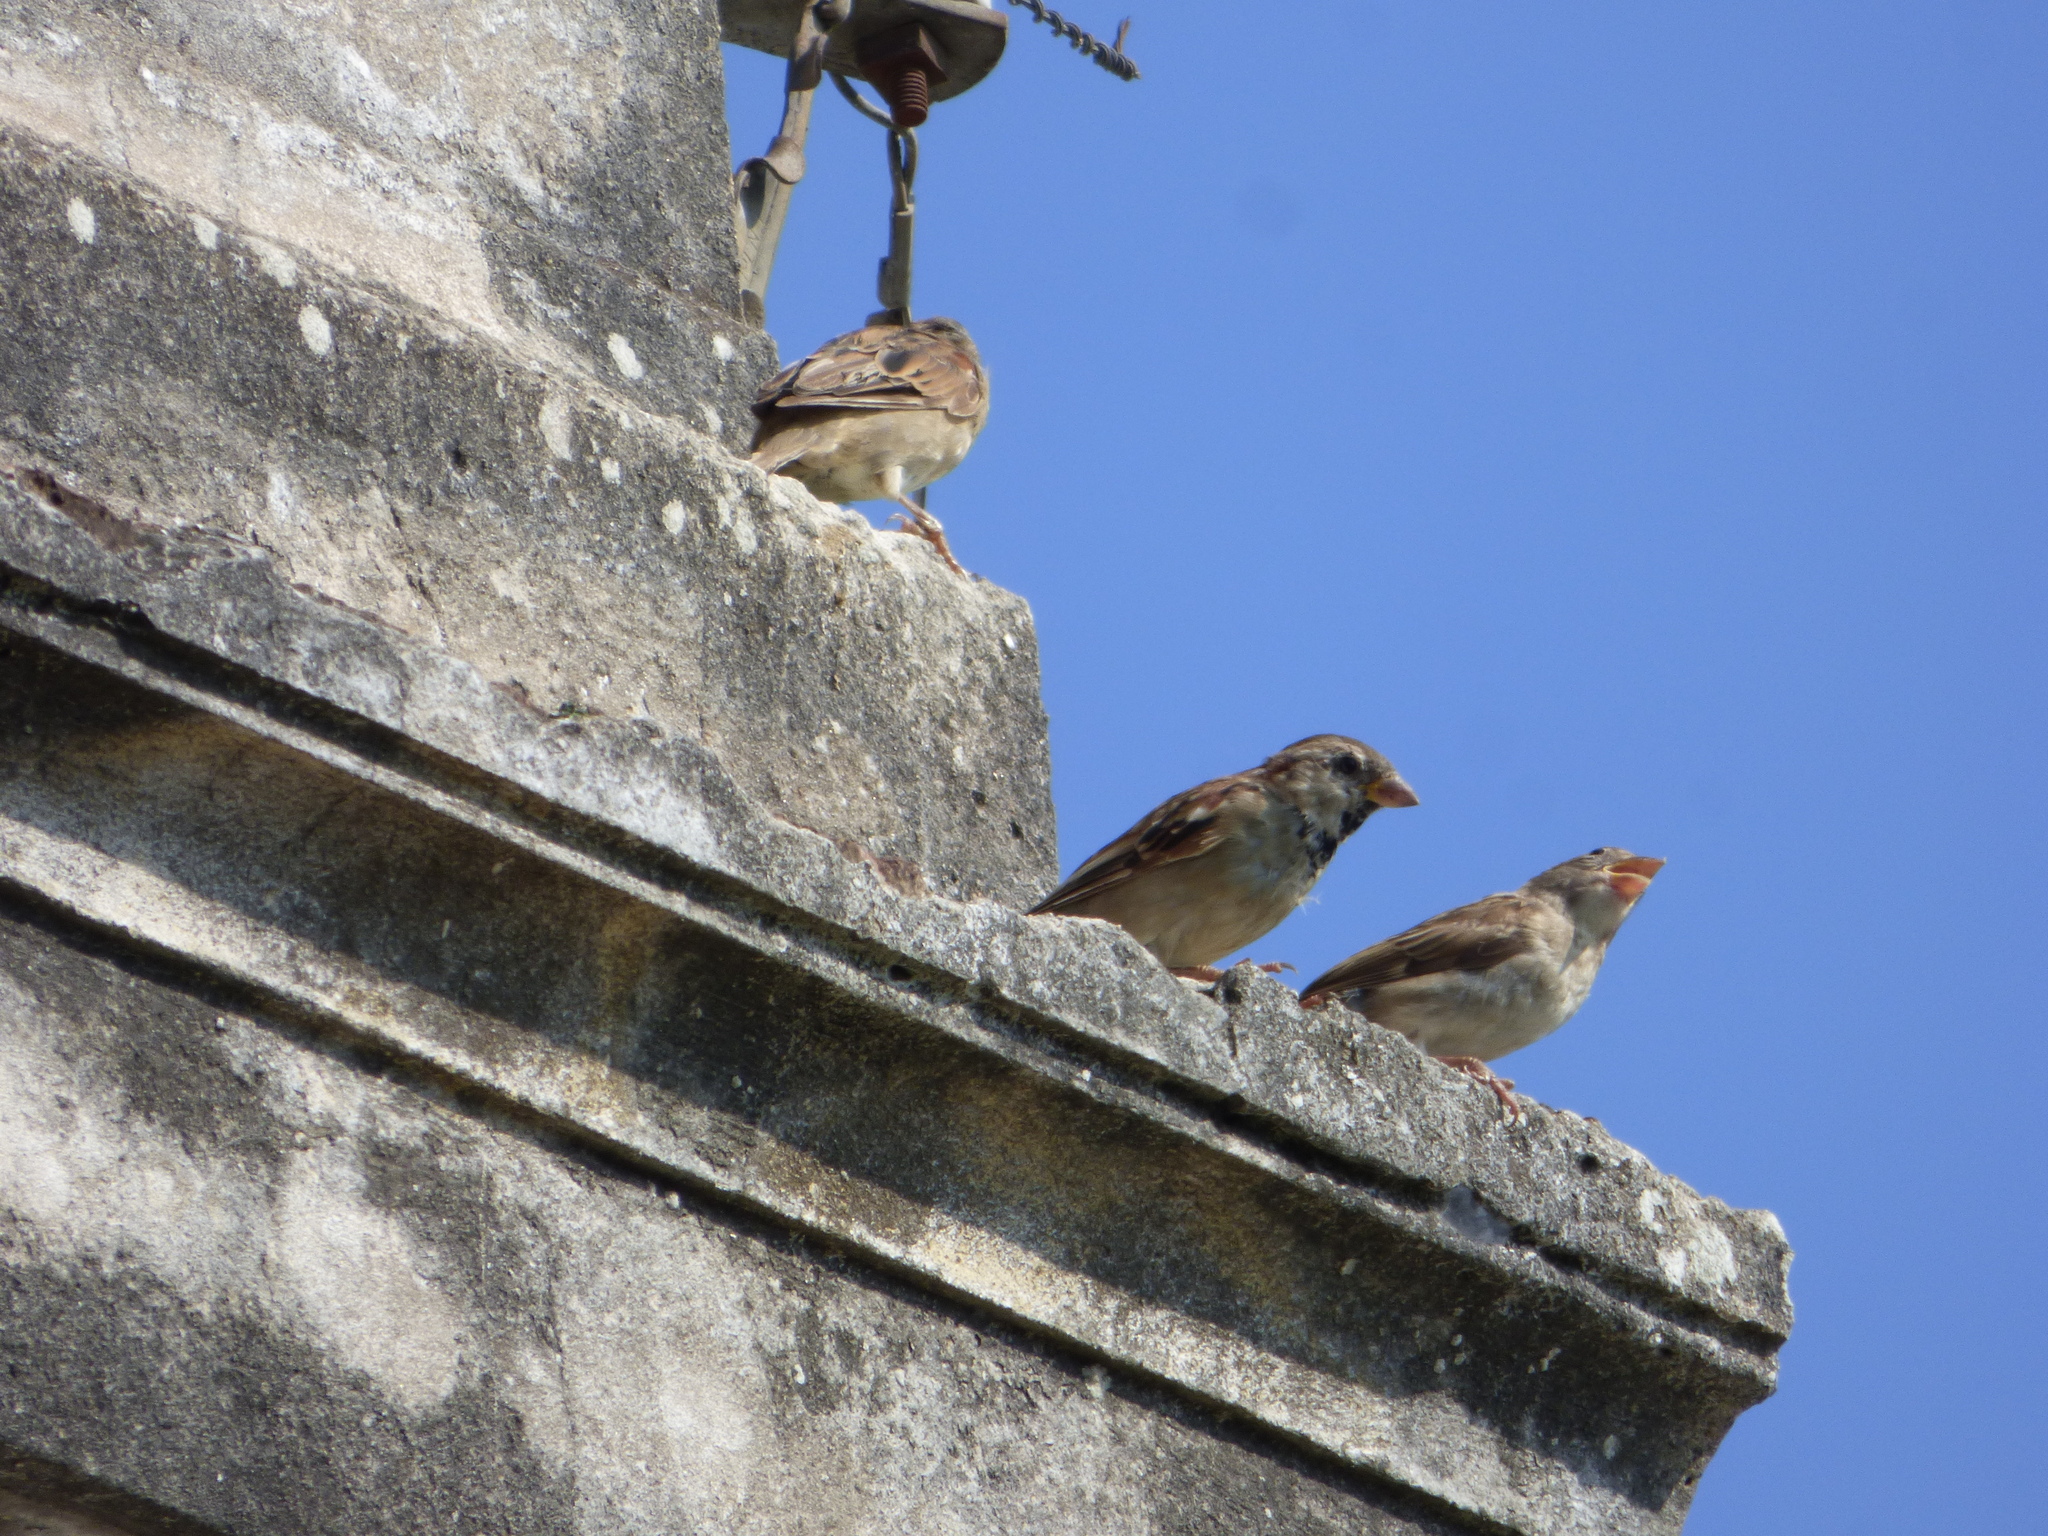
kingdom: Animalia
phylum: Chordata
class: Aves
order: Passeriformes
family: Passeridae
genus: Passer
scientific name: Passer domesticus
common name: House sparrow
